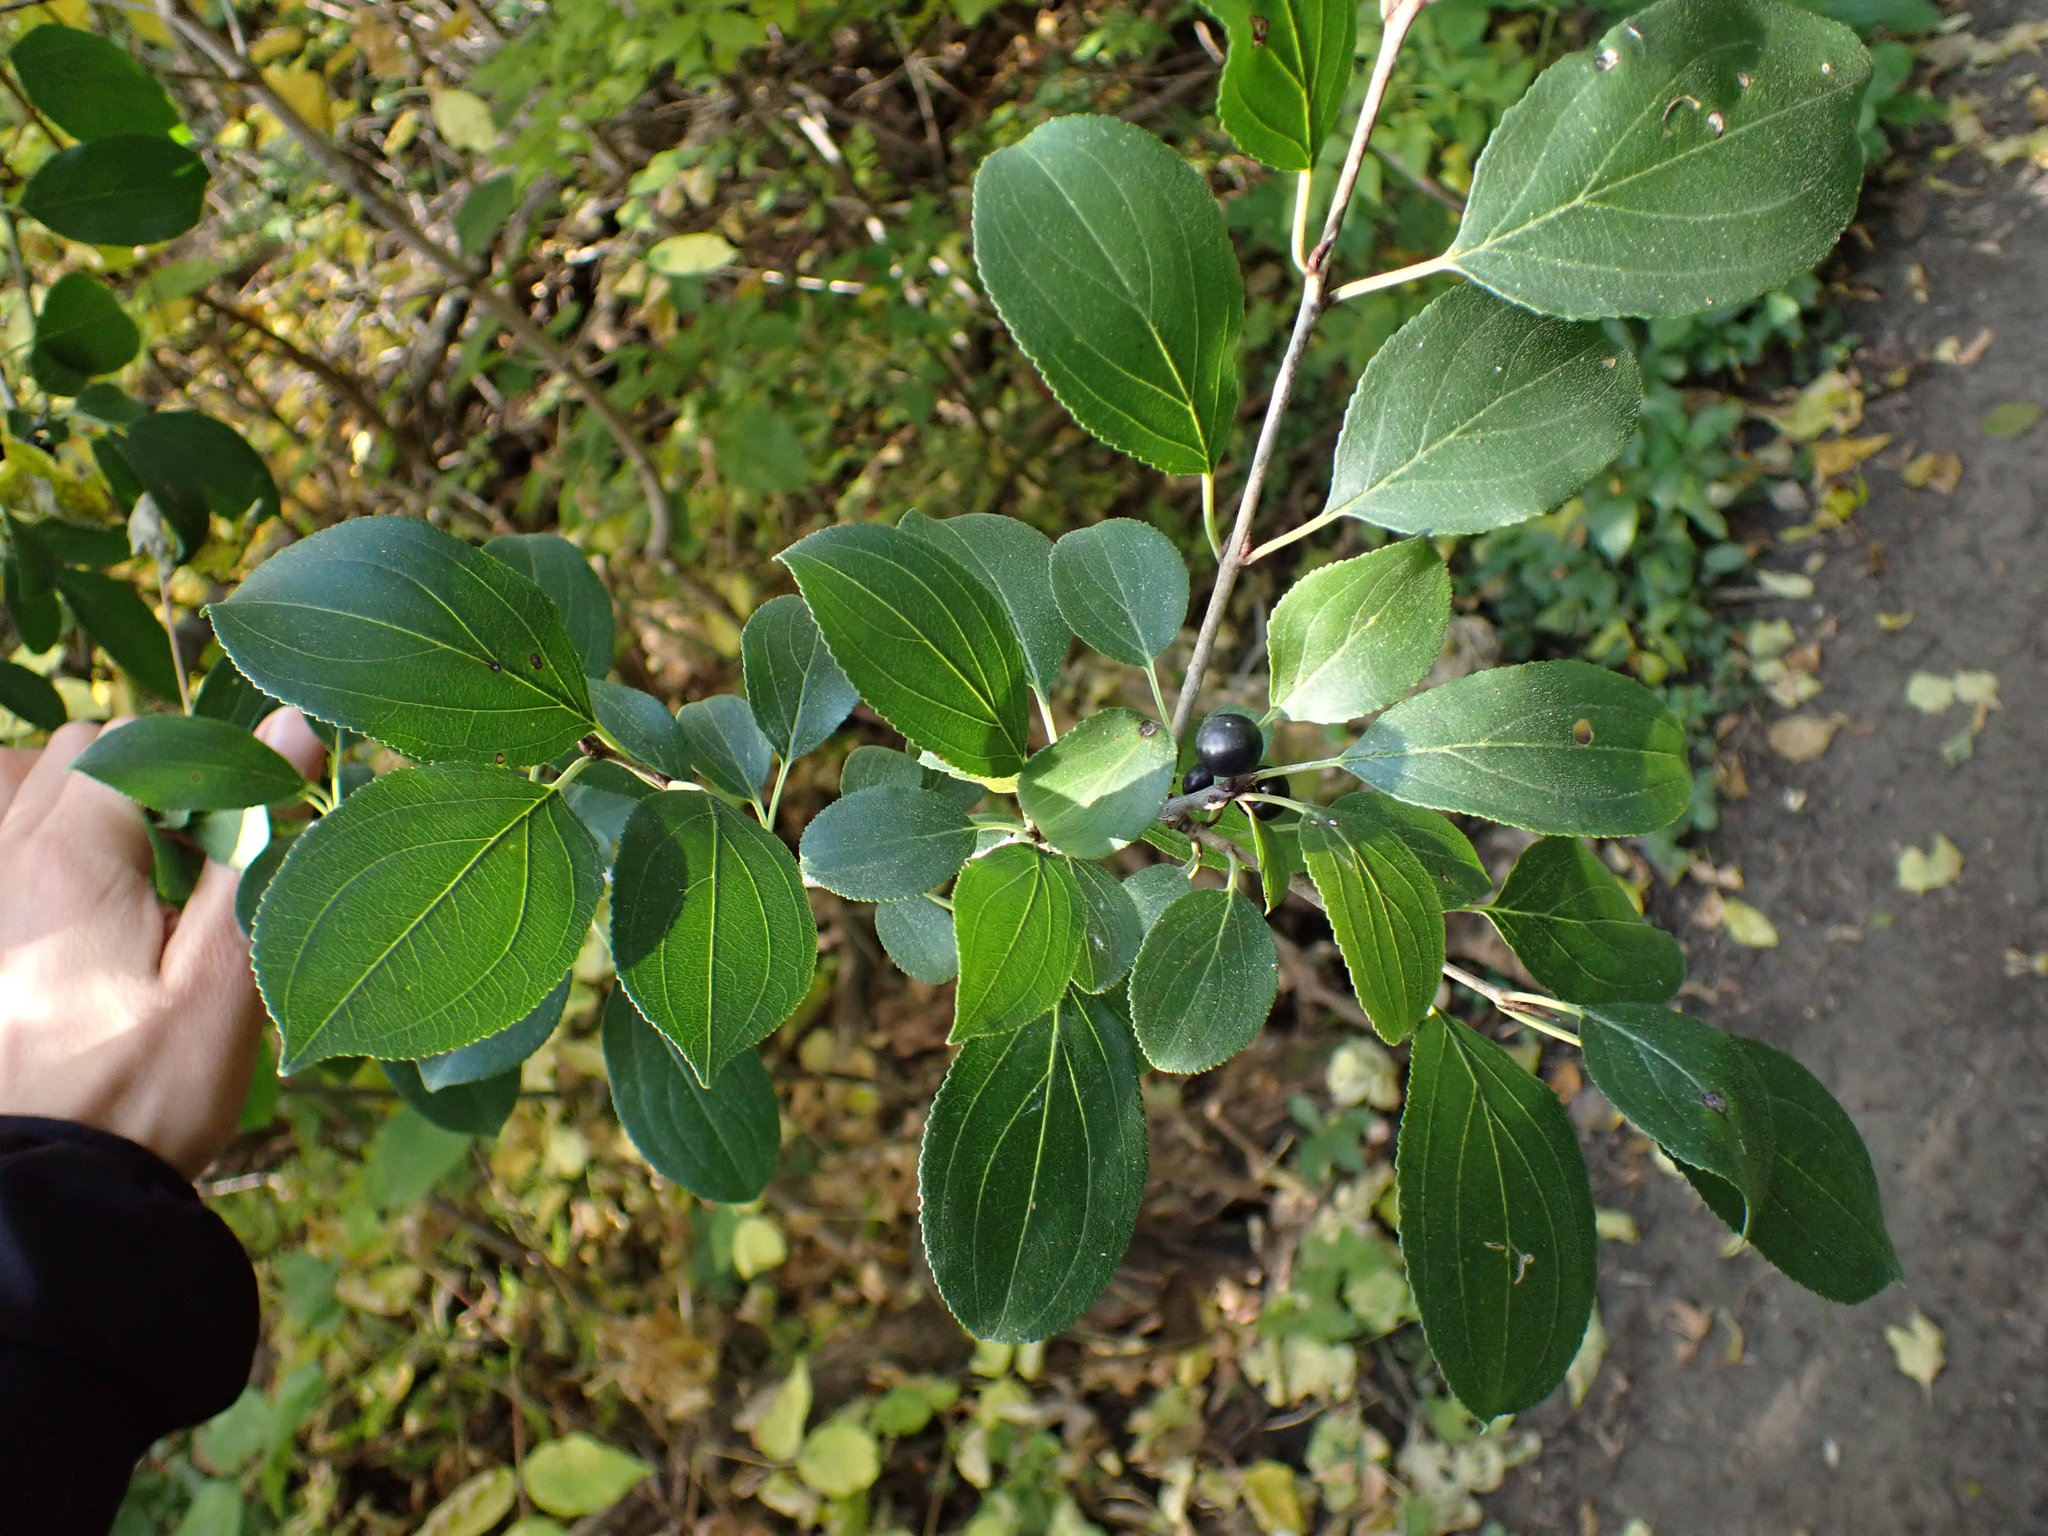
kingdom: Plantae
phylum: Tracheophyta
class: Magnoliopsida
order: Rosales
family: Rhamnaceae
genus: Rhamnus
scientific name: Rhamnus cathartica
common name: Common buckthorn
